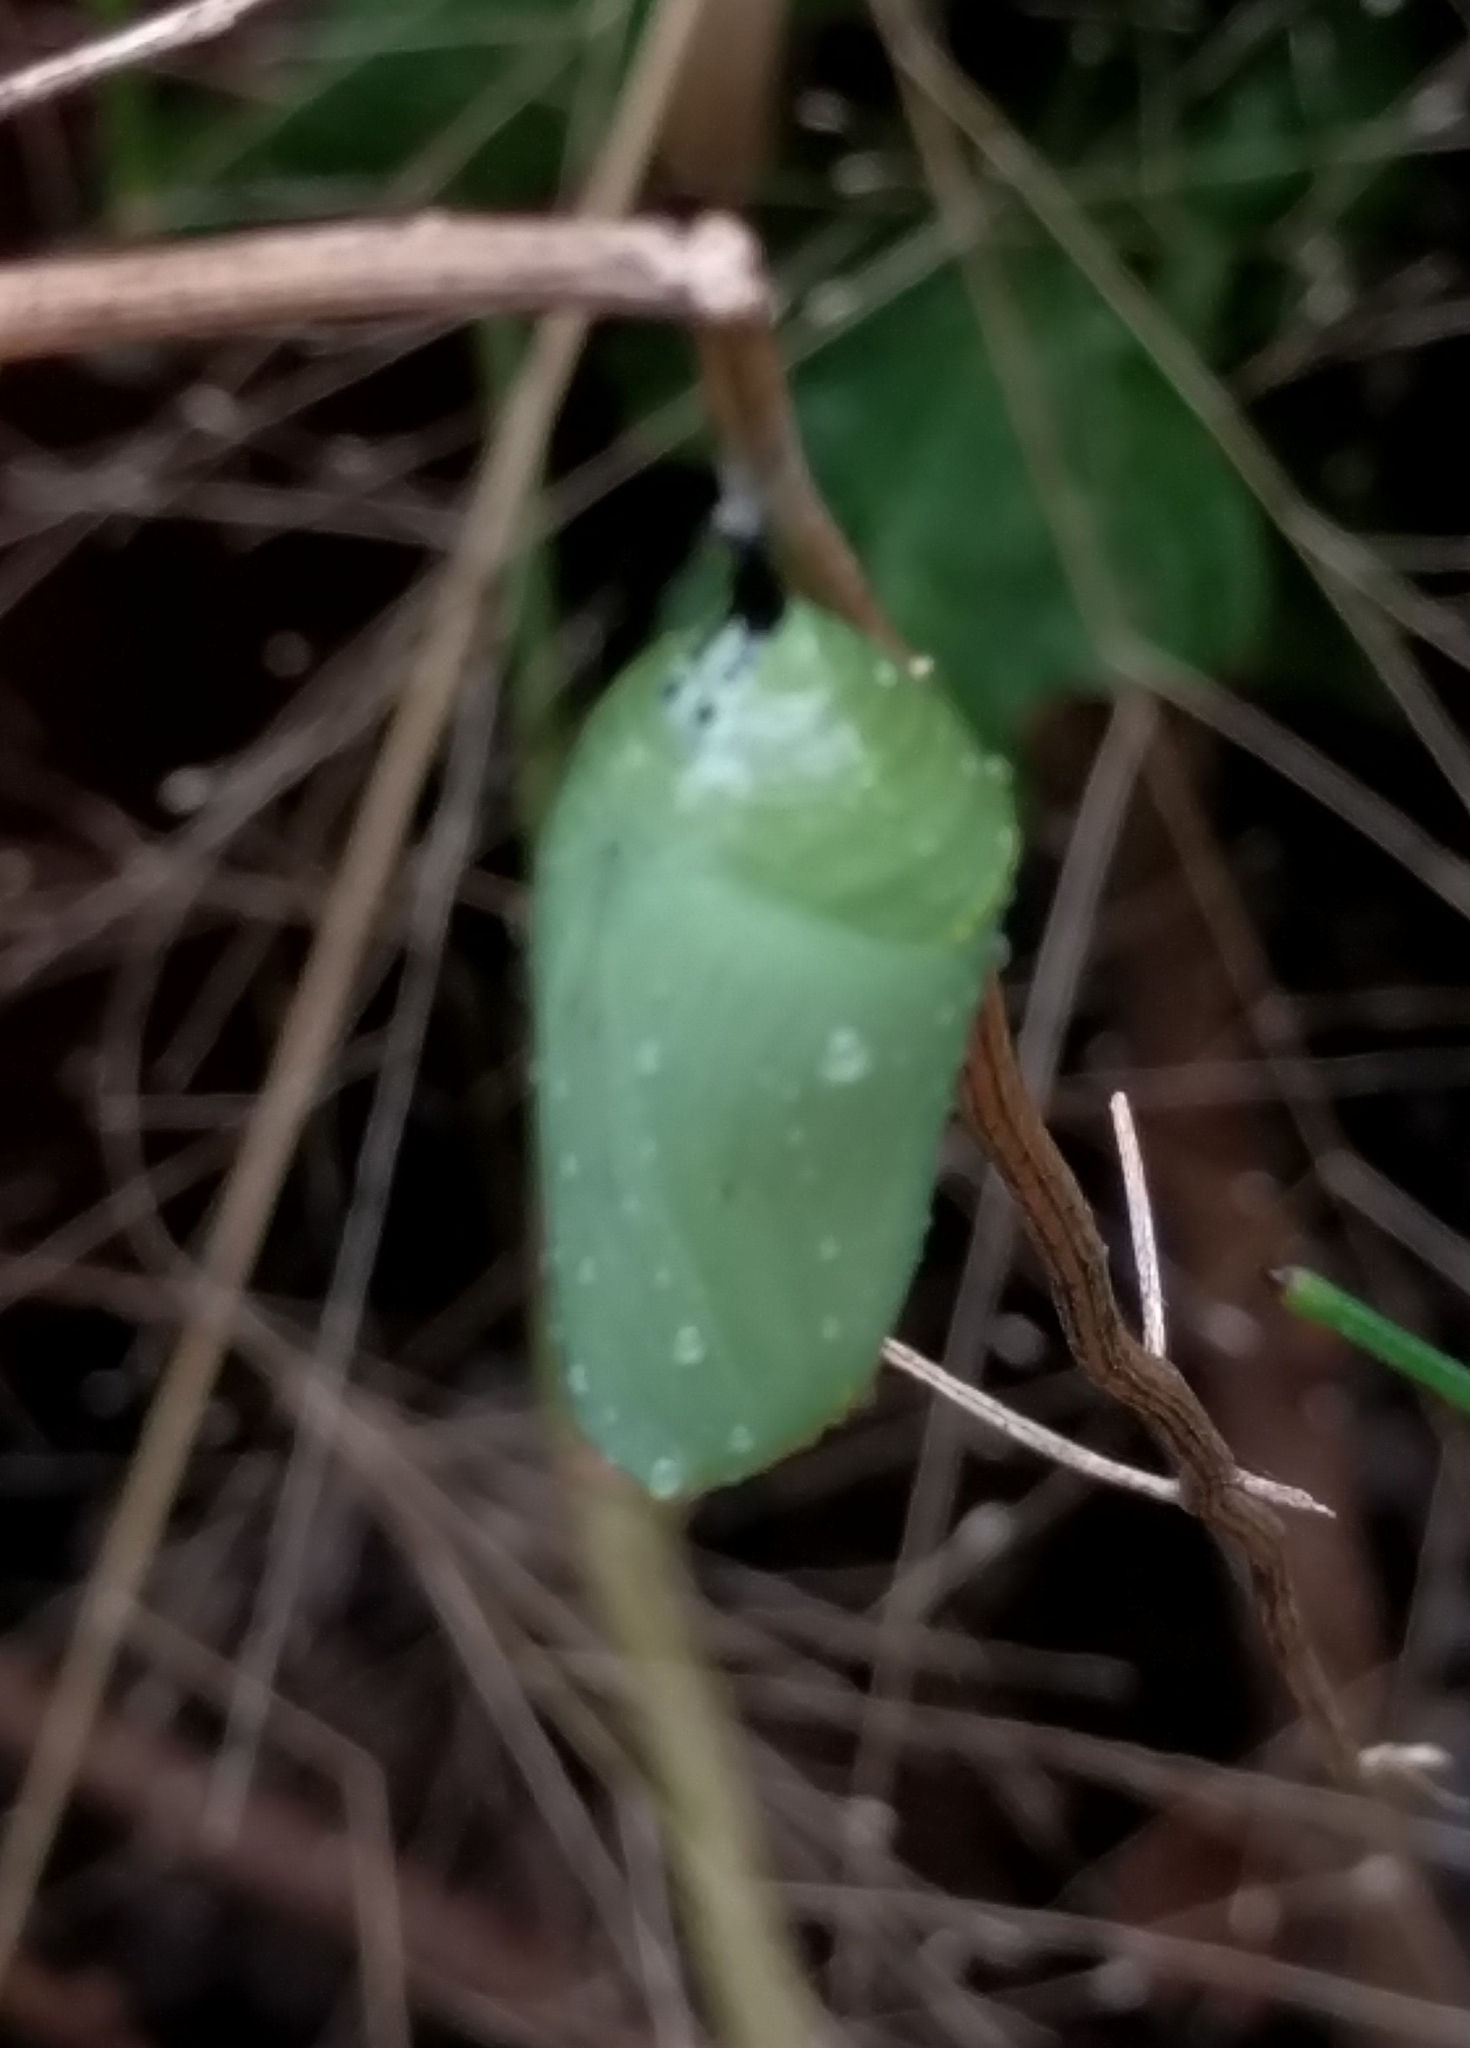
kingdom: Animalia
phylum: Arthropoda
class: Insecta
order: Lepidoptera
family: Nymphalidae
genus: Danaus
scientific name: Danaus plexippus
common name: Monarch
